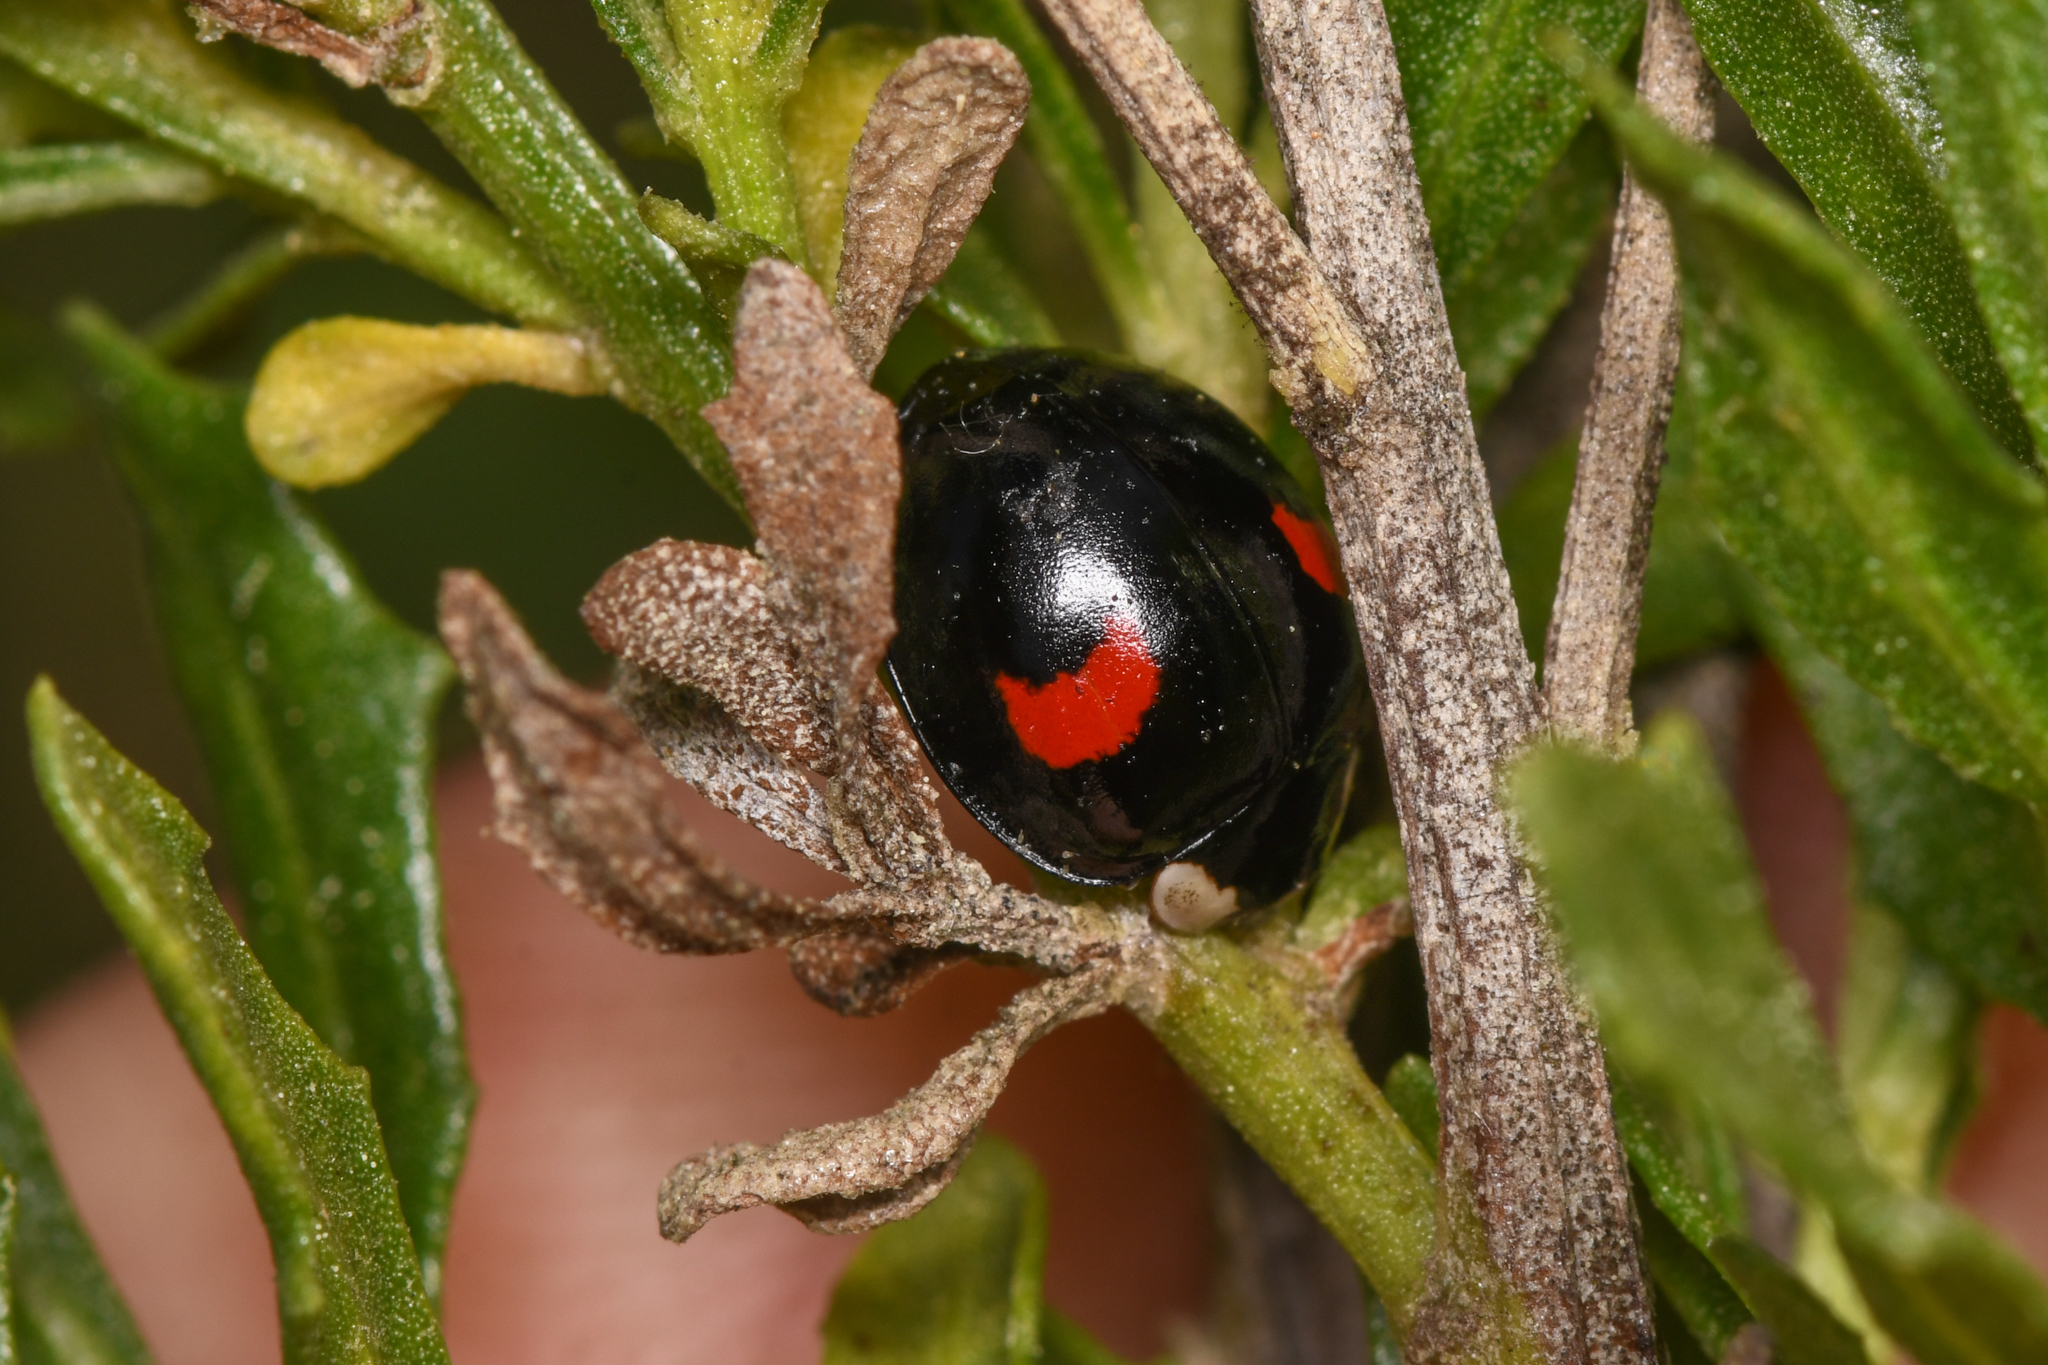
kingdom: Animalia
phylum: Arthropoda
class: Insecta
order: Coleoptera
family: Coccinellidae
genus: Harmonia
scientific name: Harmonia axyridis
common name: Harlequin ladybird
